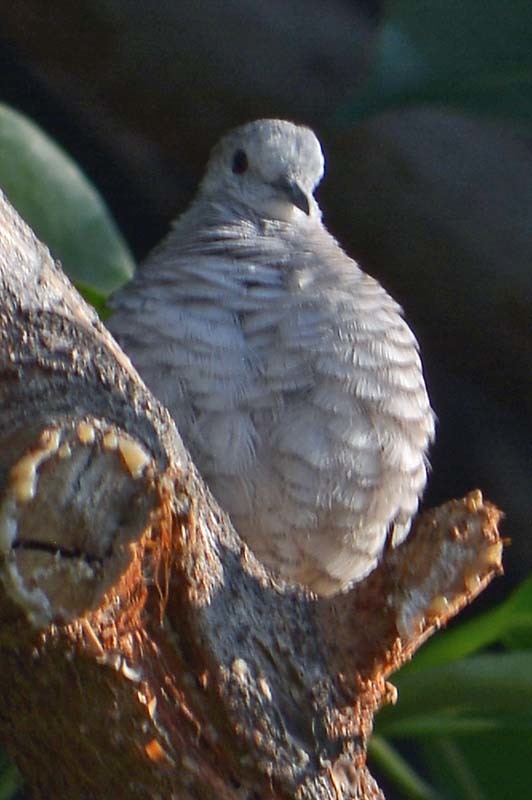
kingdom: Animalia
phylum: Chordata
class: Aves
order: Columbiformes
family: Columbidae
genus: Columbina
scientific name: Columbina inca
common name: Inca dove
